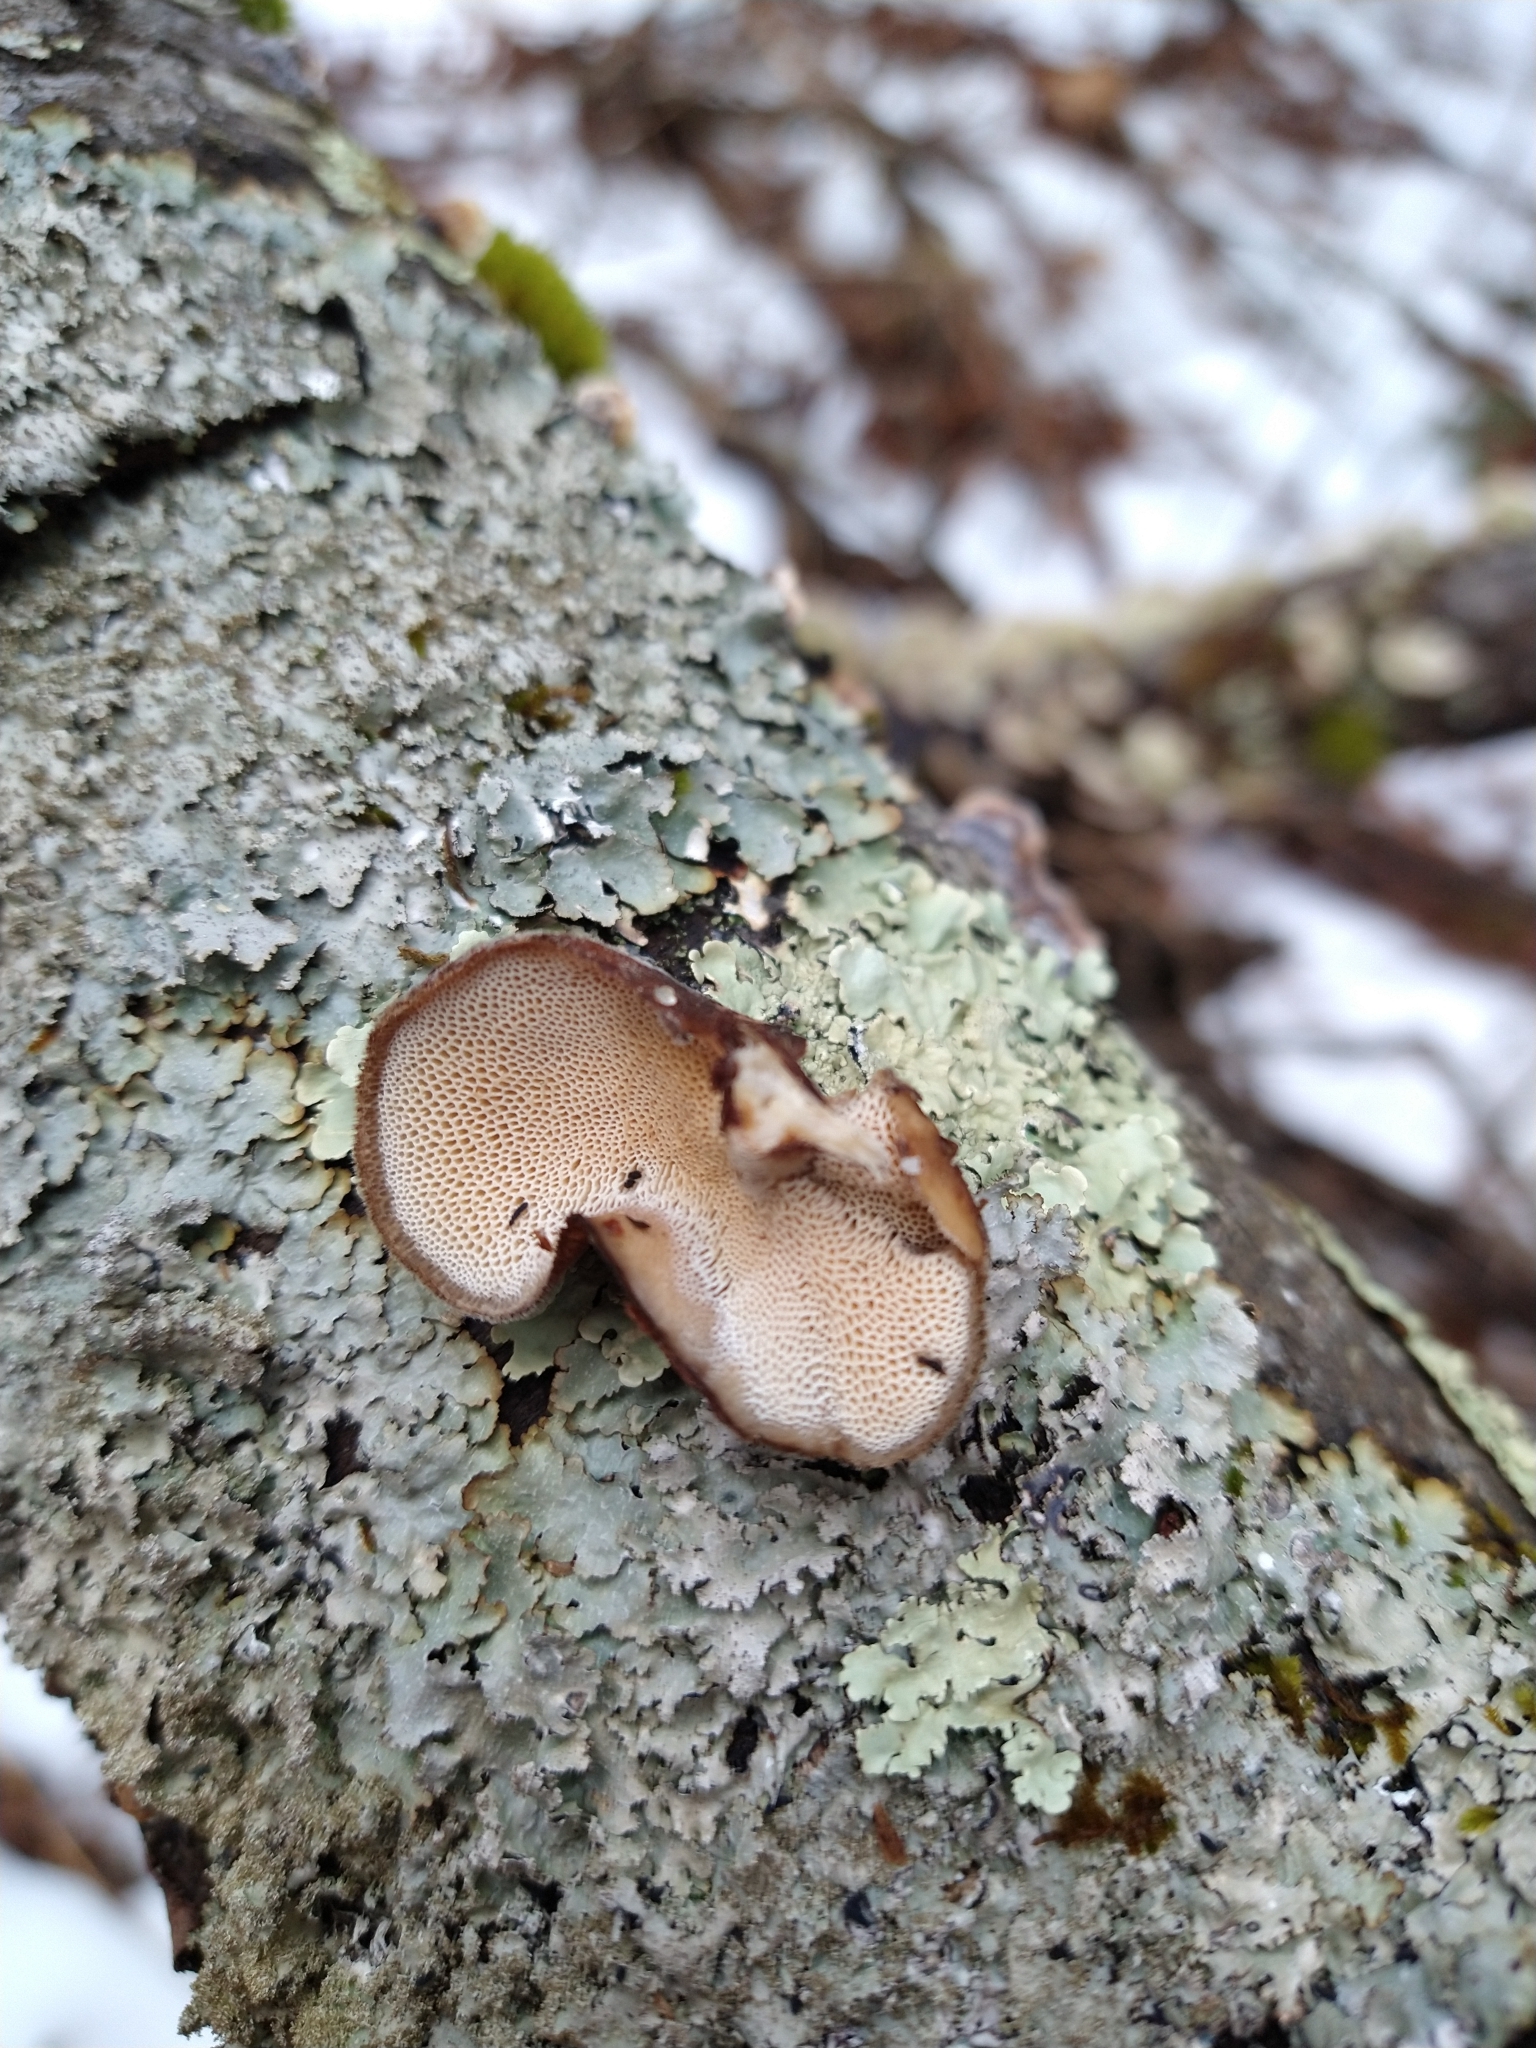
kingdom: Fungi
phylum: Basidiomycota
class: Agaricomycetes
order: Polyporales
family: Polyporaceae
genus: Lentinus
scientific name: Lentinus brumalis
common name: Winter polypore
